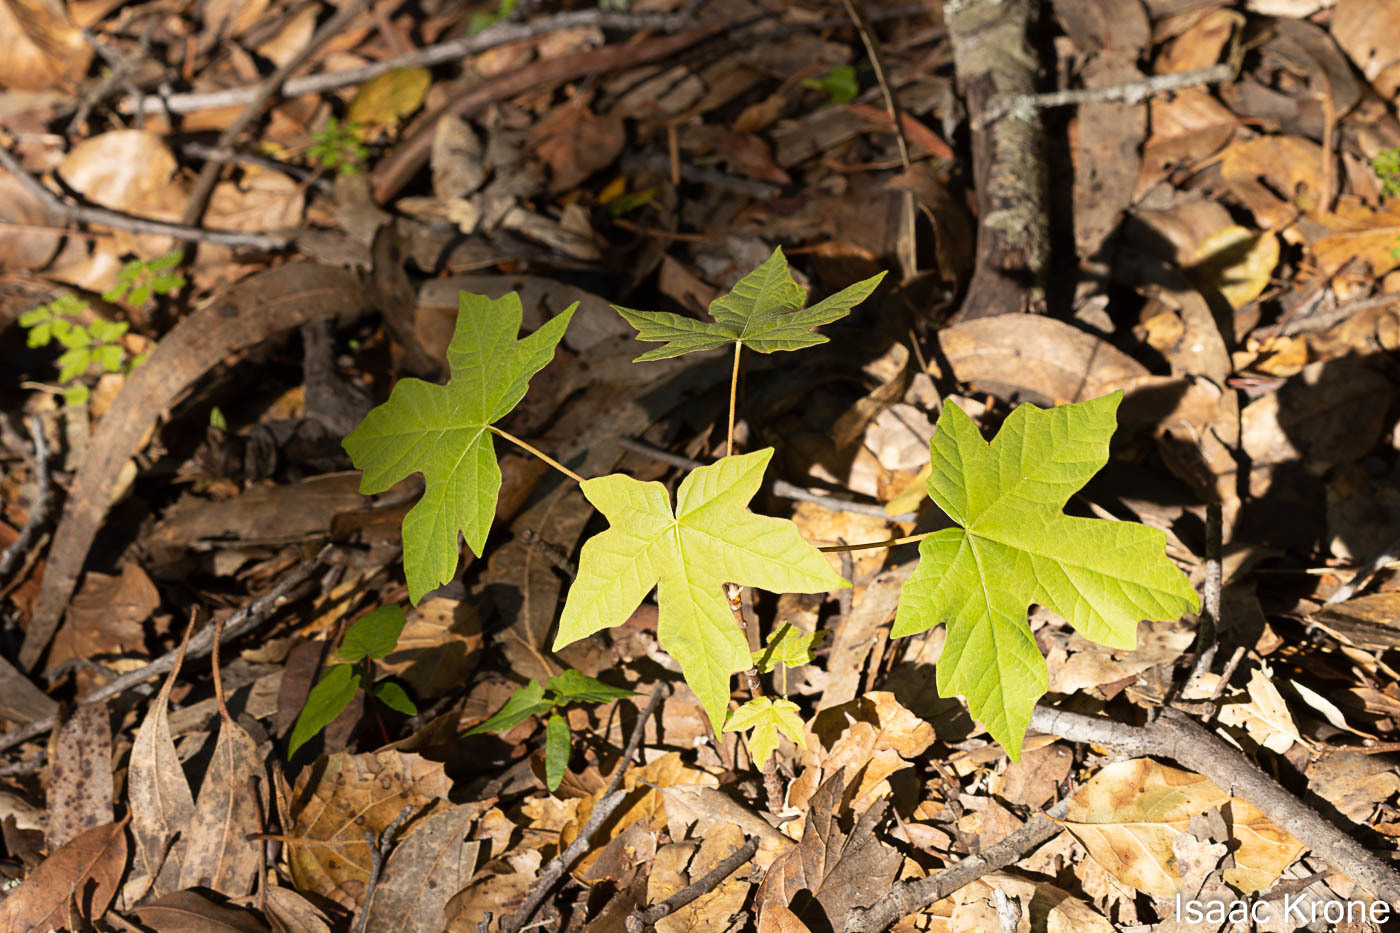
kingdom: Plantae
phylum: Tracheophyta
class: Magnoliopsida
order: Sapindales
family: Sapindaceae
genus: Acer
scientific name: Acer macrophyllum
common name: Oregon maple
